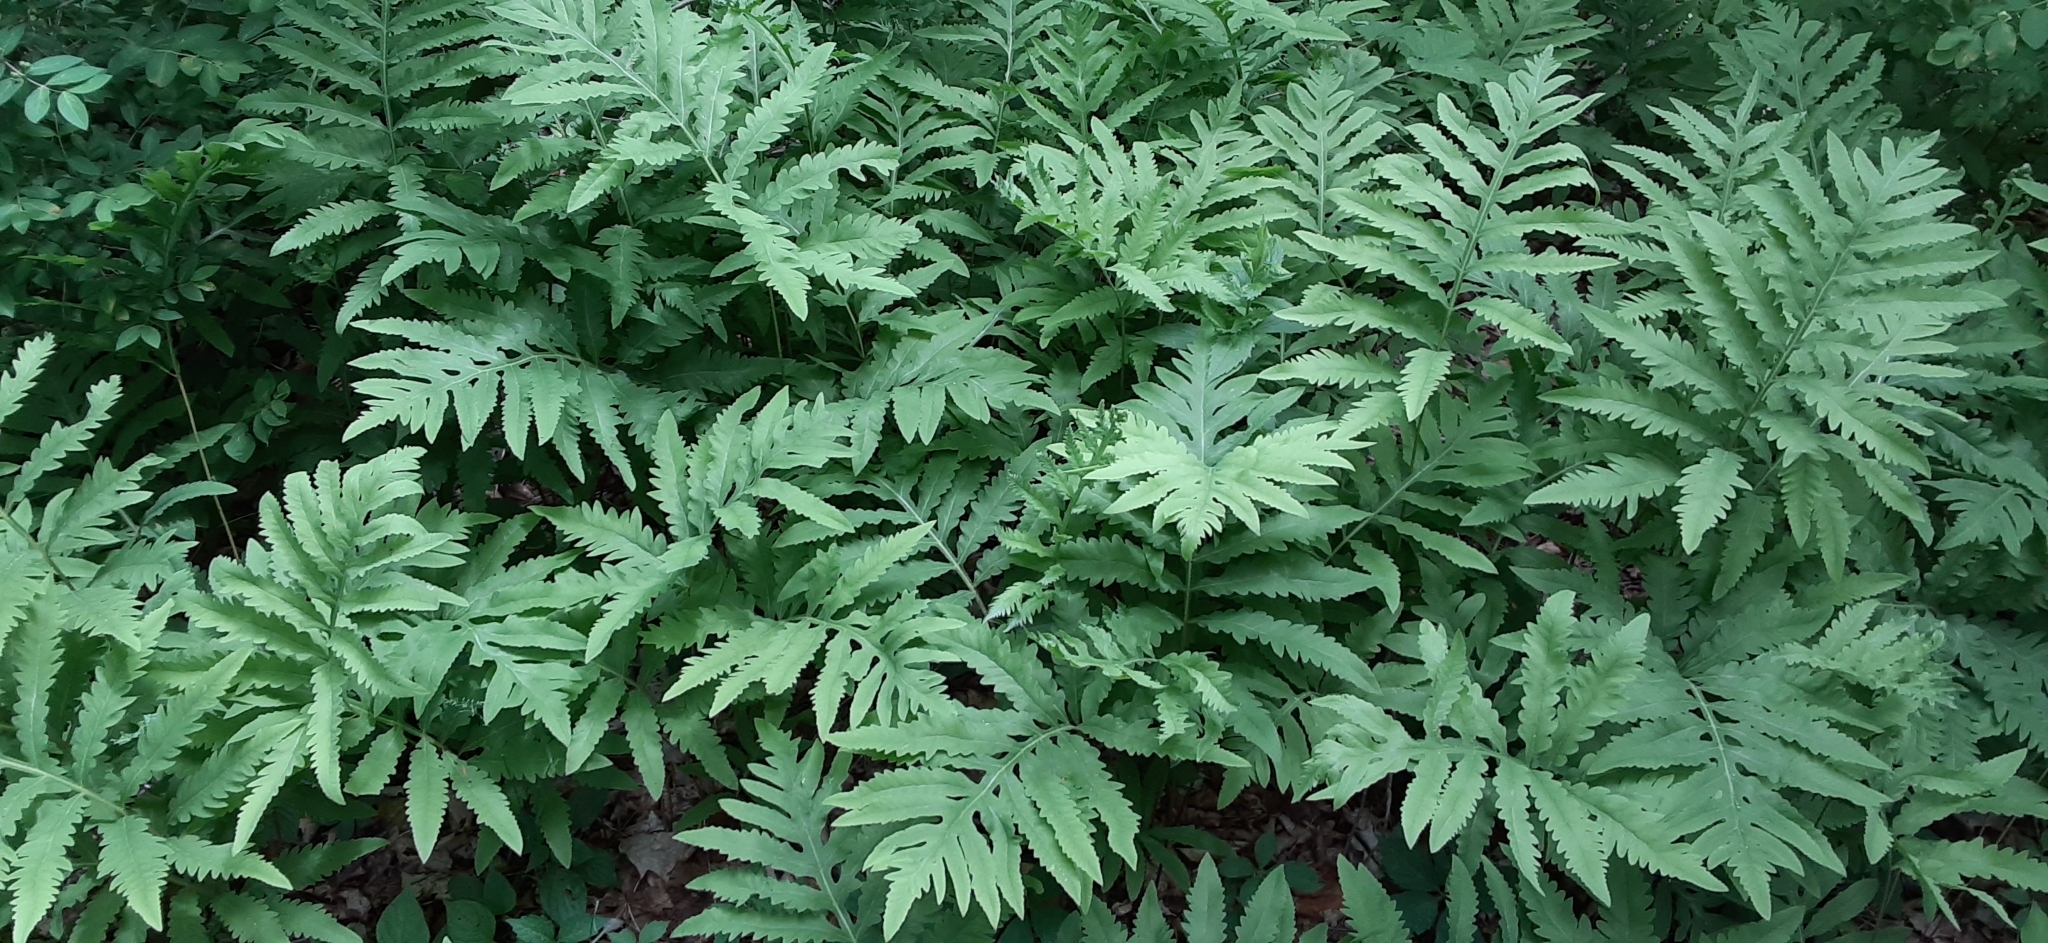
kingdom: Plantae
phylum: Tracheophyta
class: Polypodiopsida
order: Polypodiales
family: Onocleaceae
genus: Onoclea
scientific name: Onoclea sensibilis
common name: Sensitive fern
